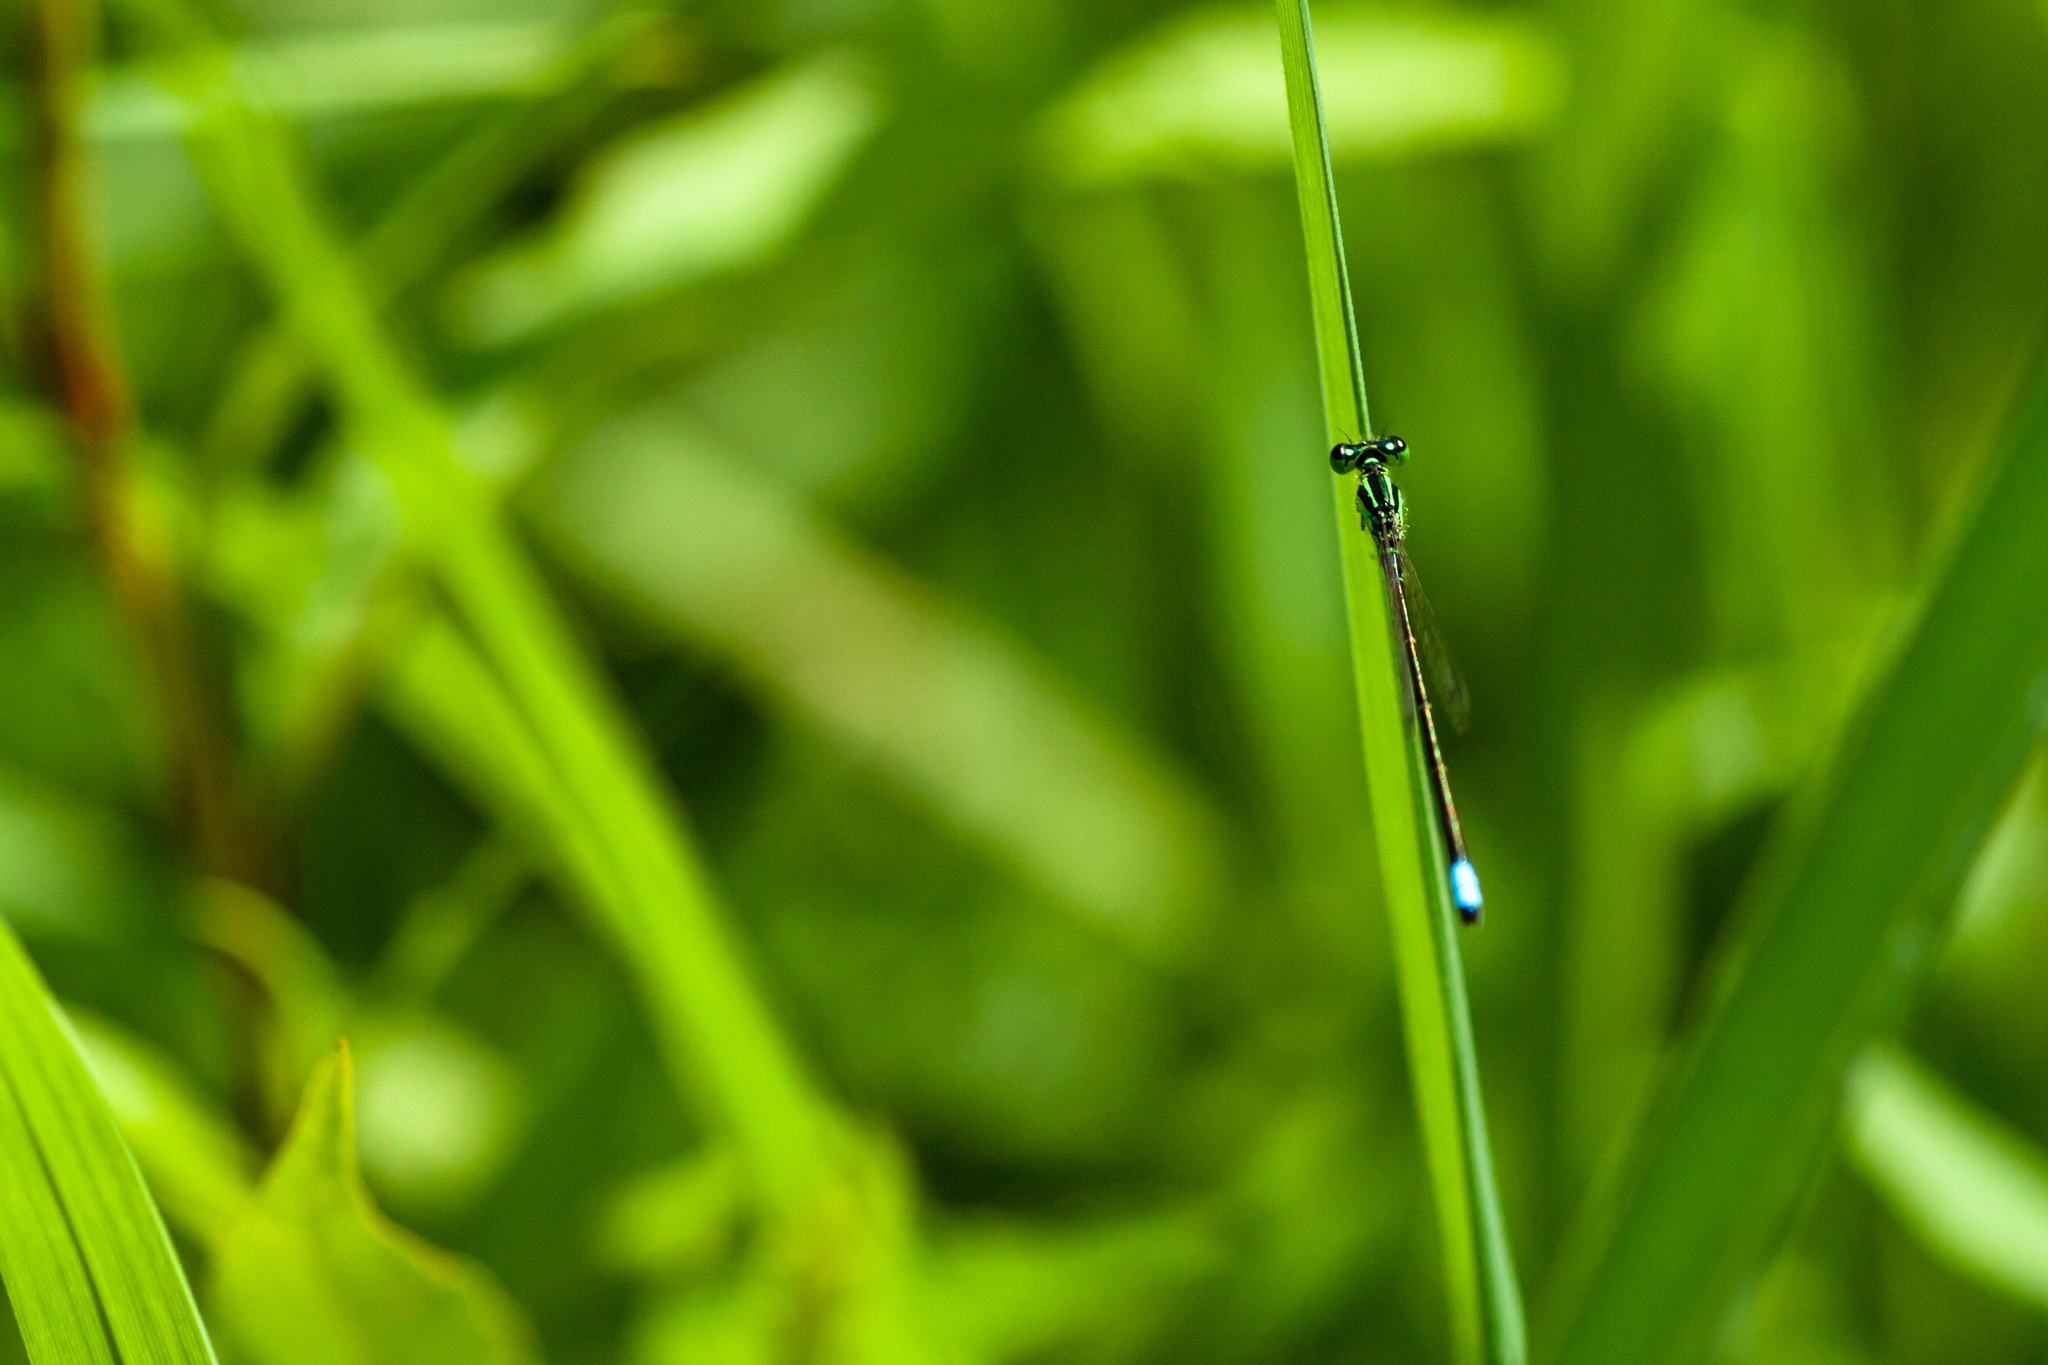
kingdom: Animalia
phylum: Arthropoda
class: Insecta
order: Odonata
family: Coenagrionidae
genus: Ischnura
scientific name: Ischnura verticalis
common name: Eastern forktail
